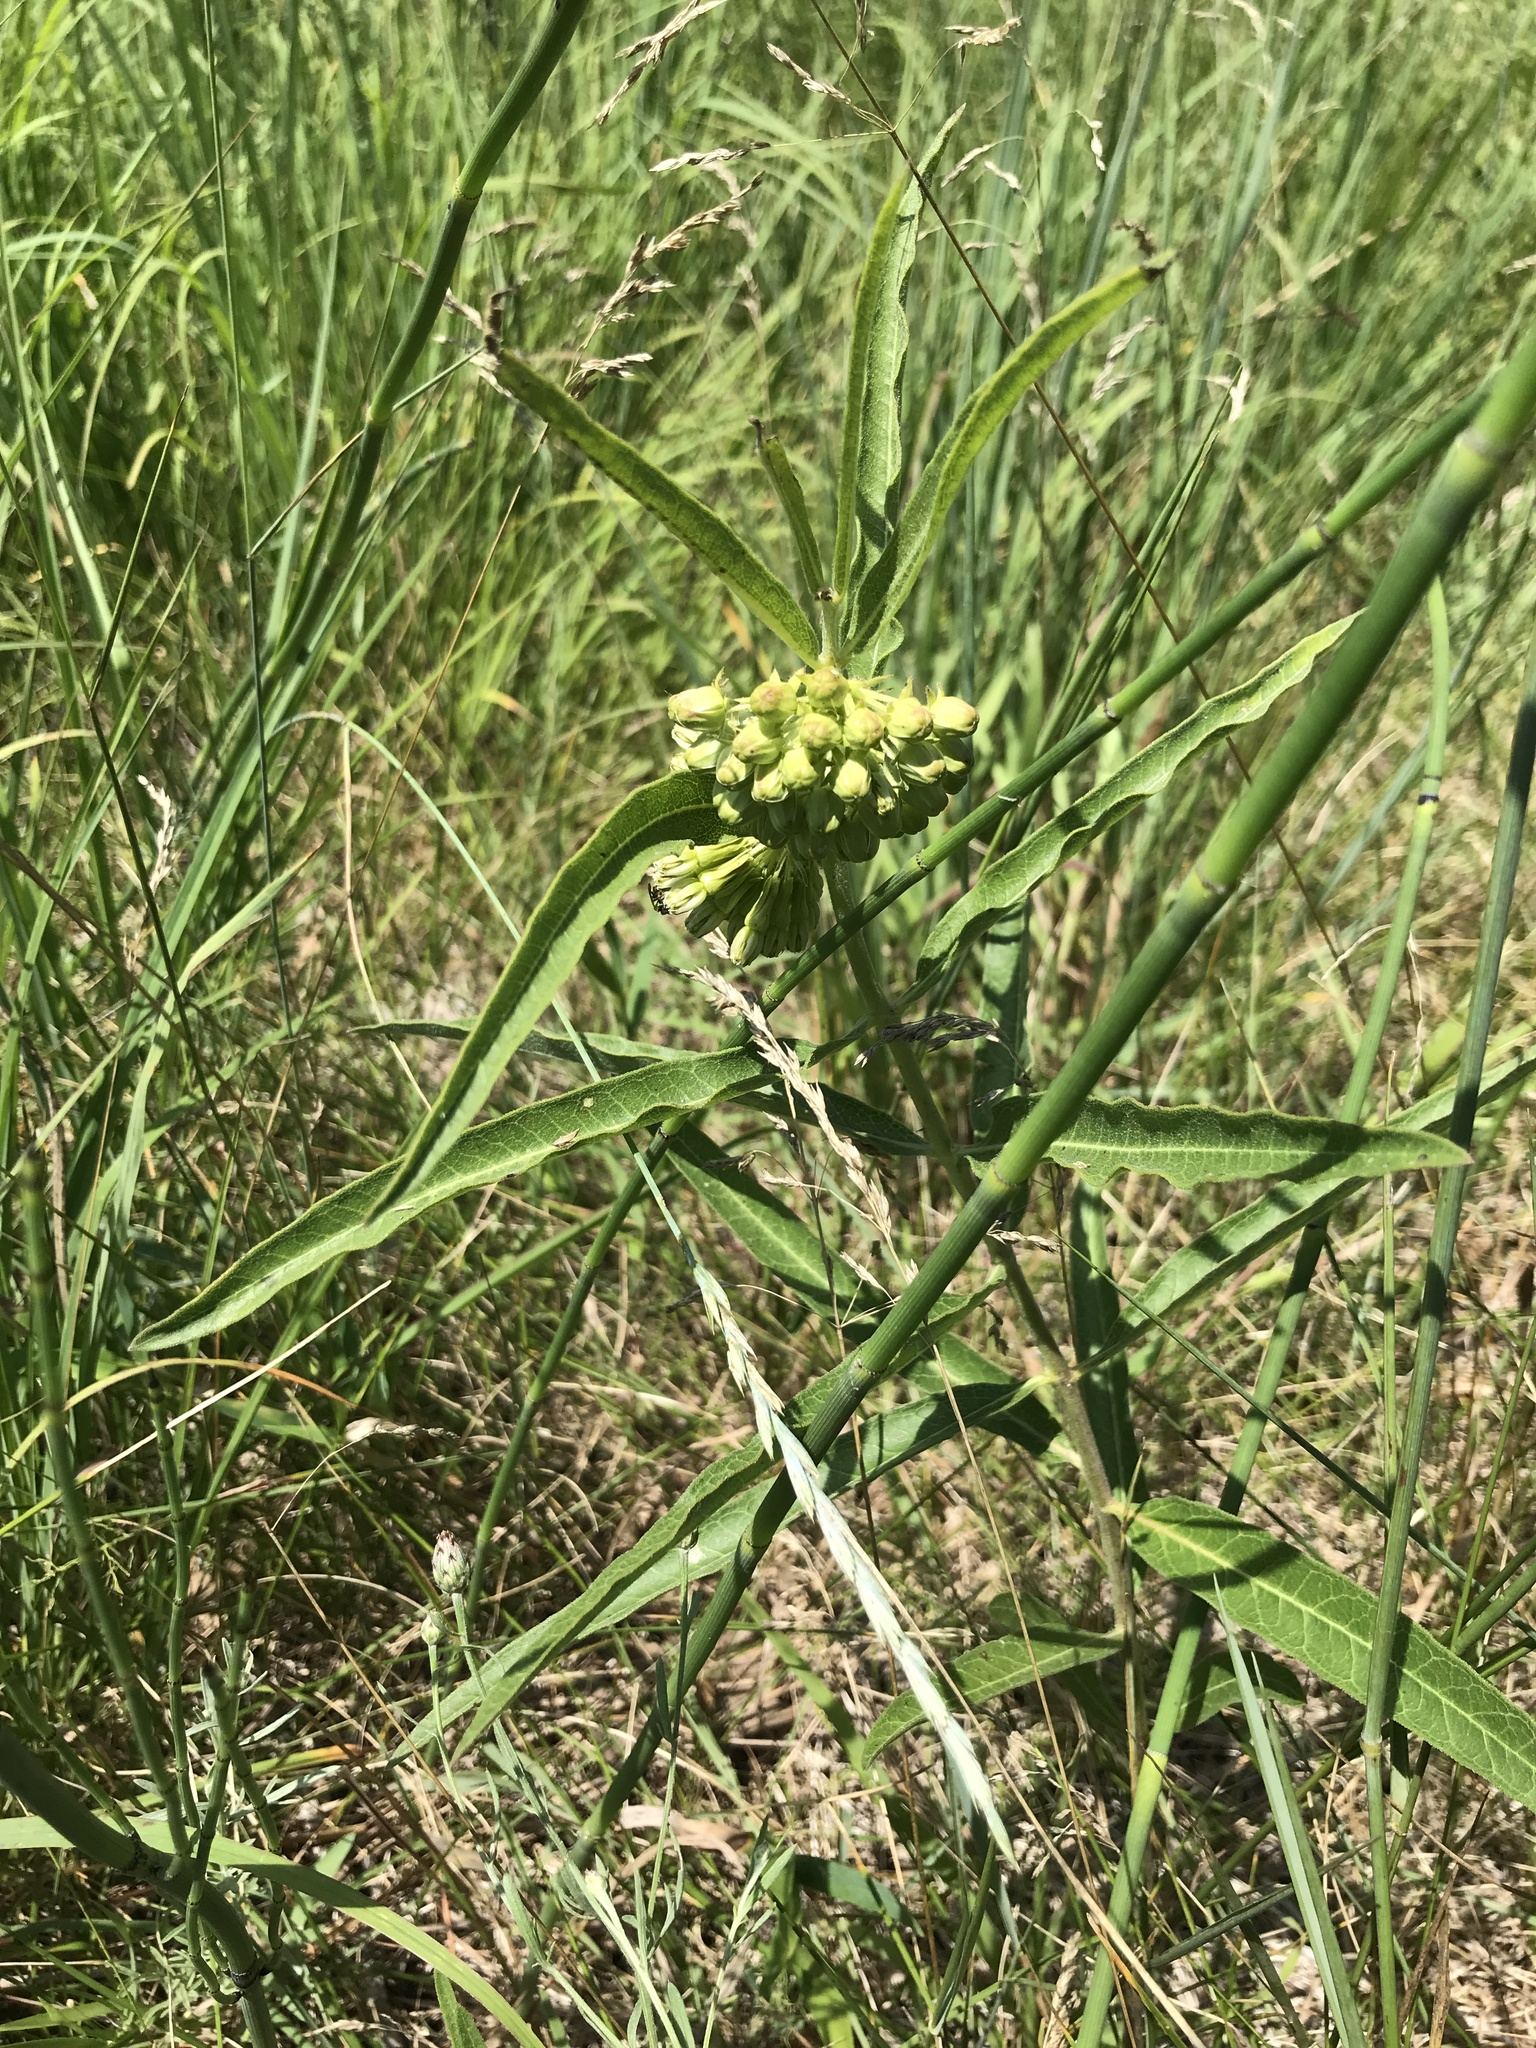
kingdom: Plantae
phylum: Tracheophyta
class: Magnoliopsida
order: Gentianales
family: Apocynaceae
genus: Asclepias
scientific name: Asclepias viridiflora
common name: Green comet milkweed
